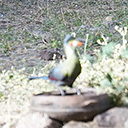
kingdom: Animalia
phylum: Chordata
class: Aves
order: Musophagiformes
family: Musophagidae
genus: Tauraco
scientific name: Tauraco leucotis
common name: White-cheeked turaco
